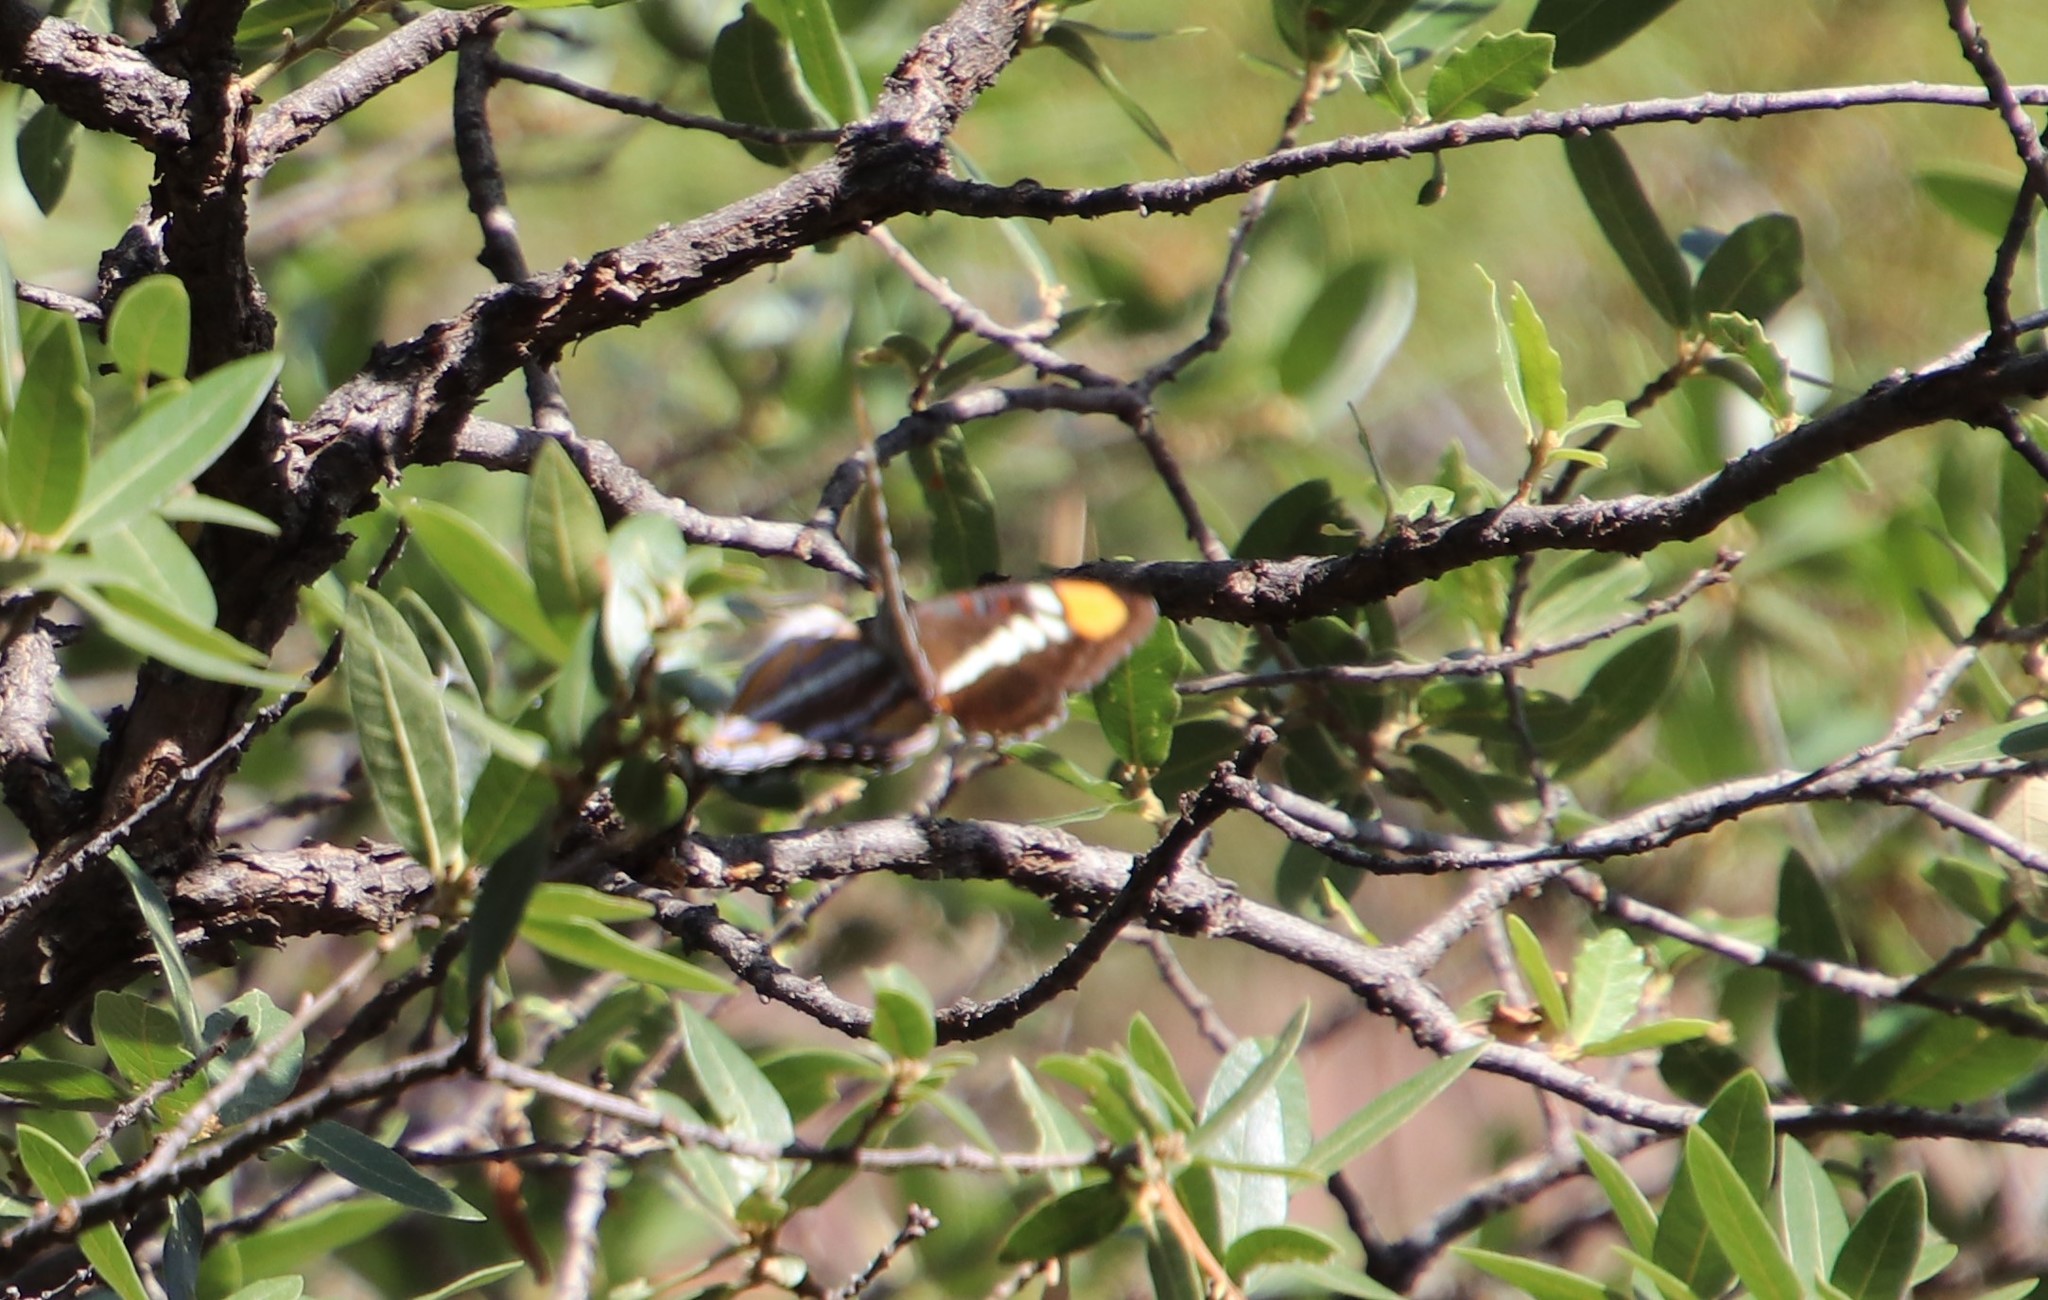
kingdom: Animalia
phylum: Arthropoda
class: Insecta
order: Lepidoptera
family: Nymphalidae
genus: Limenitis
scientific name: Limenitis bredowii
